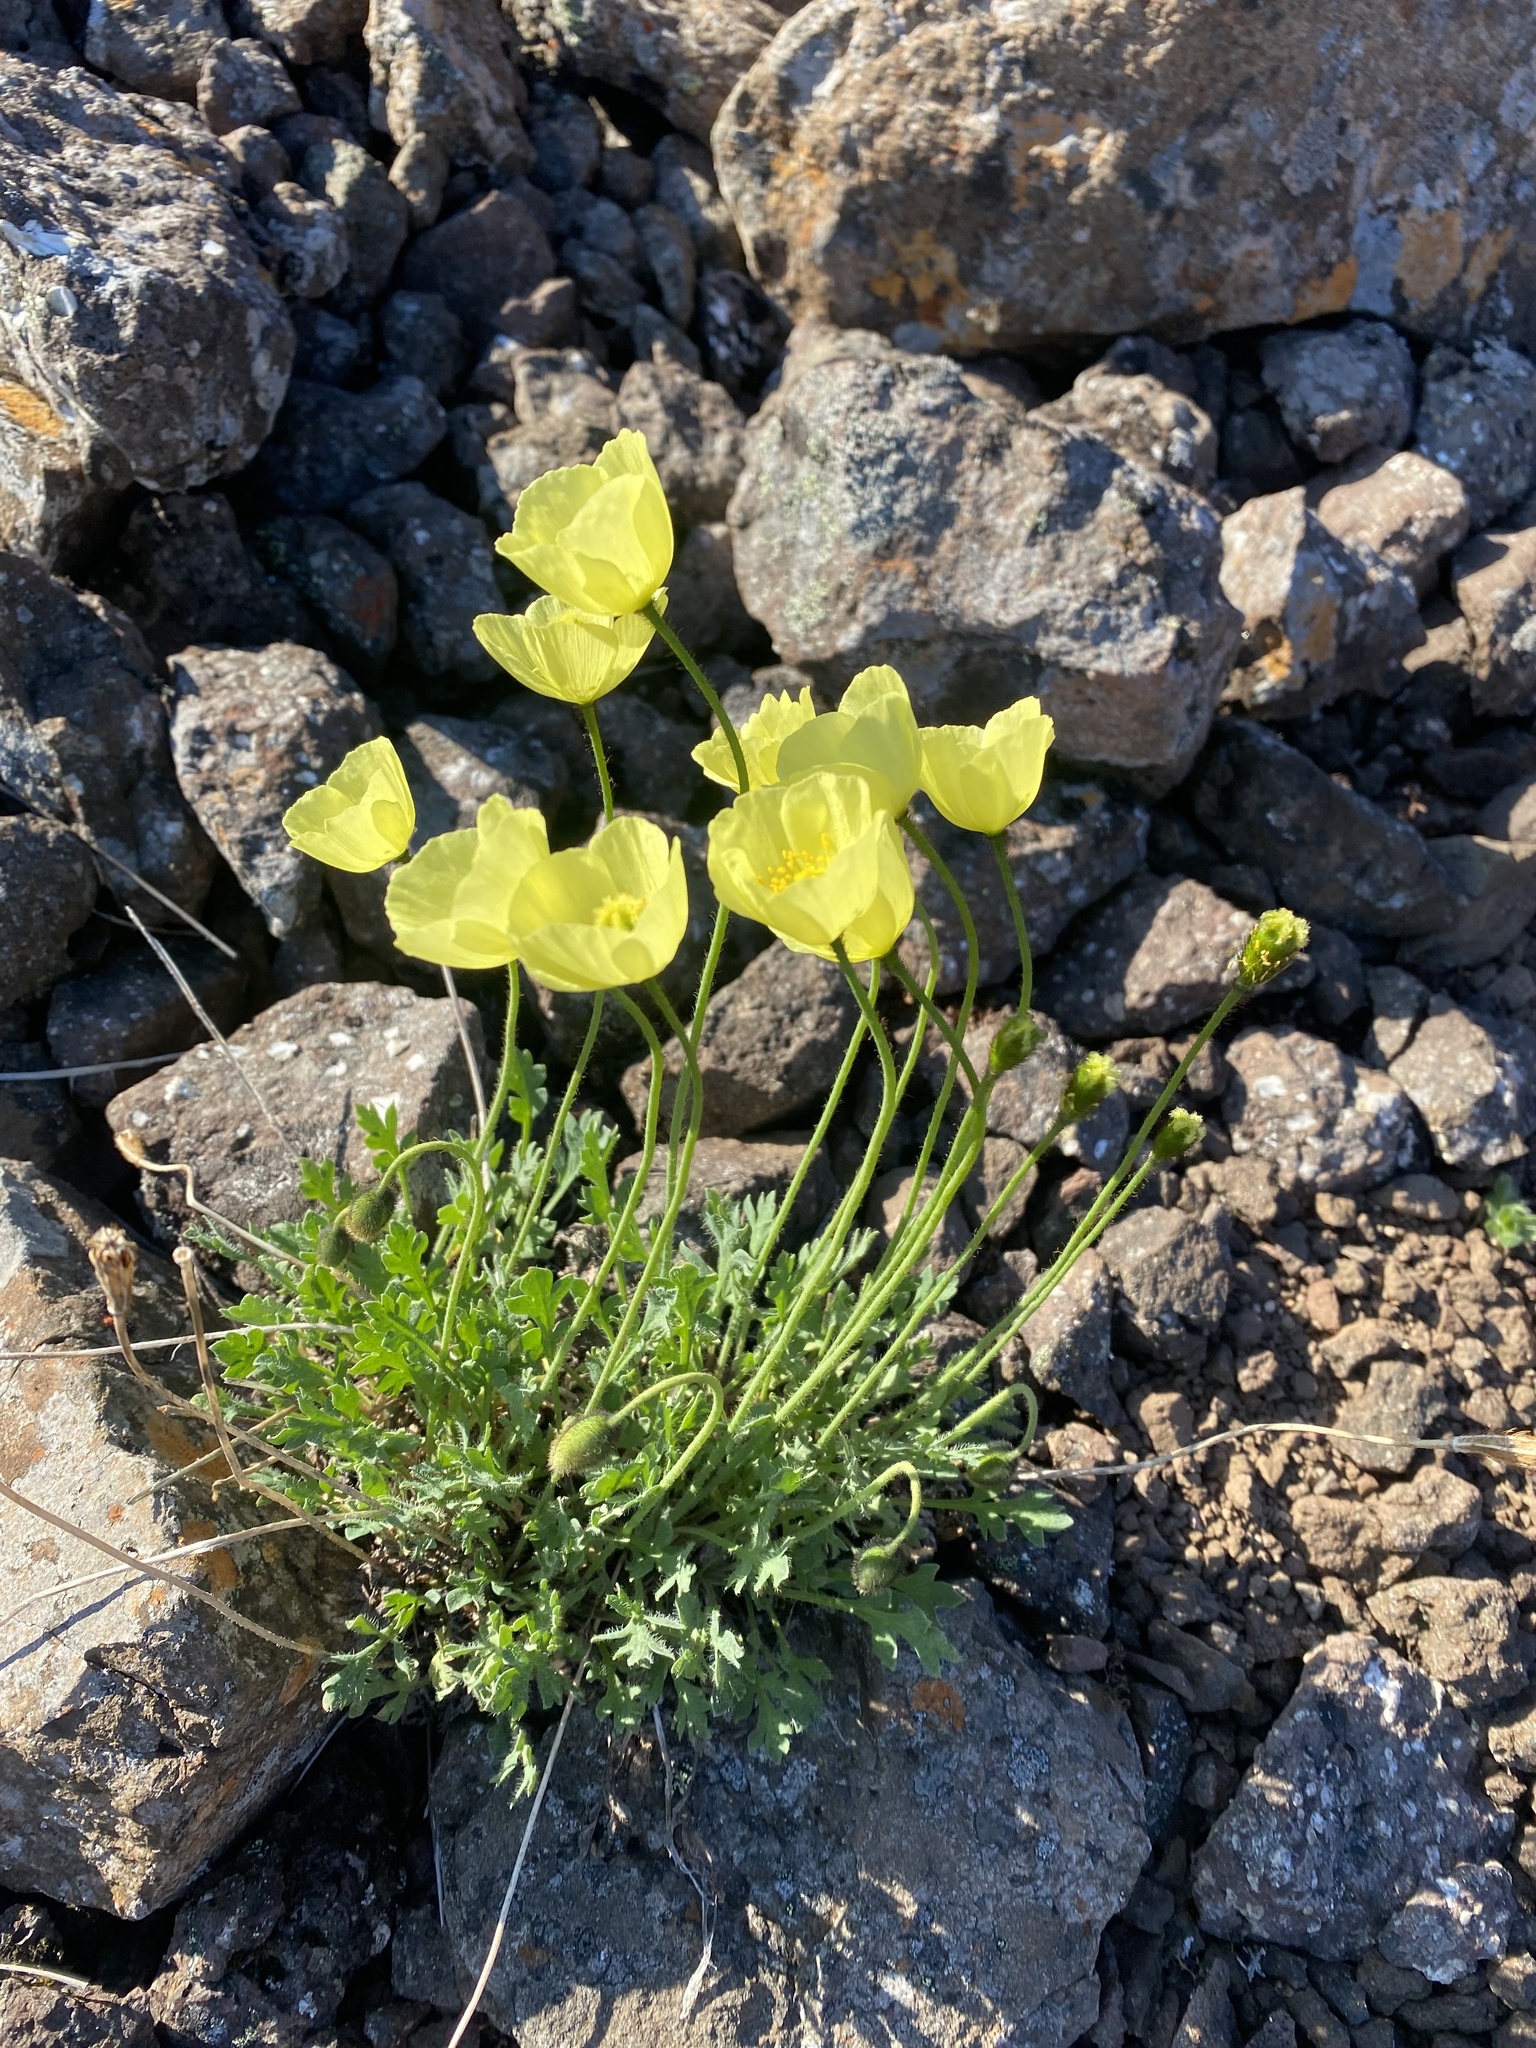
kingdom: Plantae
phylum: Tracheophyta
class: Magnoliopsida
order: Ranunculales
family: Papaveraceae
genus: Papaver
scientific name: Papaver pulvinatum
